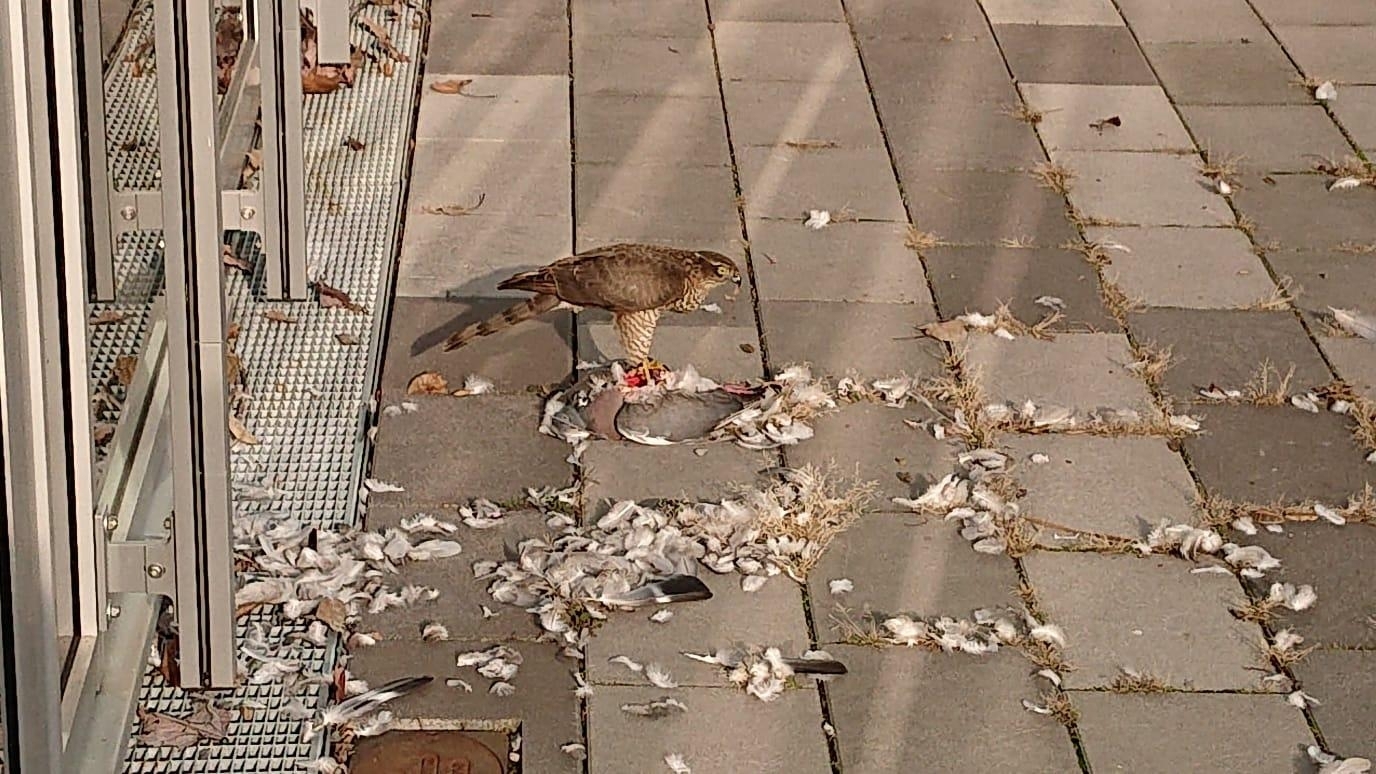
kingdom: Animalia
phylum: Chordata
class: Aves
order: Accipitriformes
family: Accipitridae
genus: Accipiter
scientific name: Accipiter nisus
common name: Eurasian sparrowhawk
